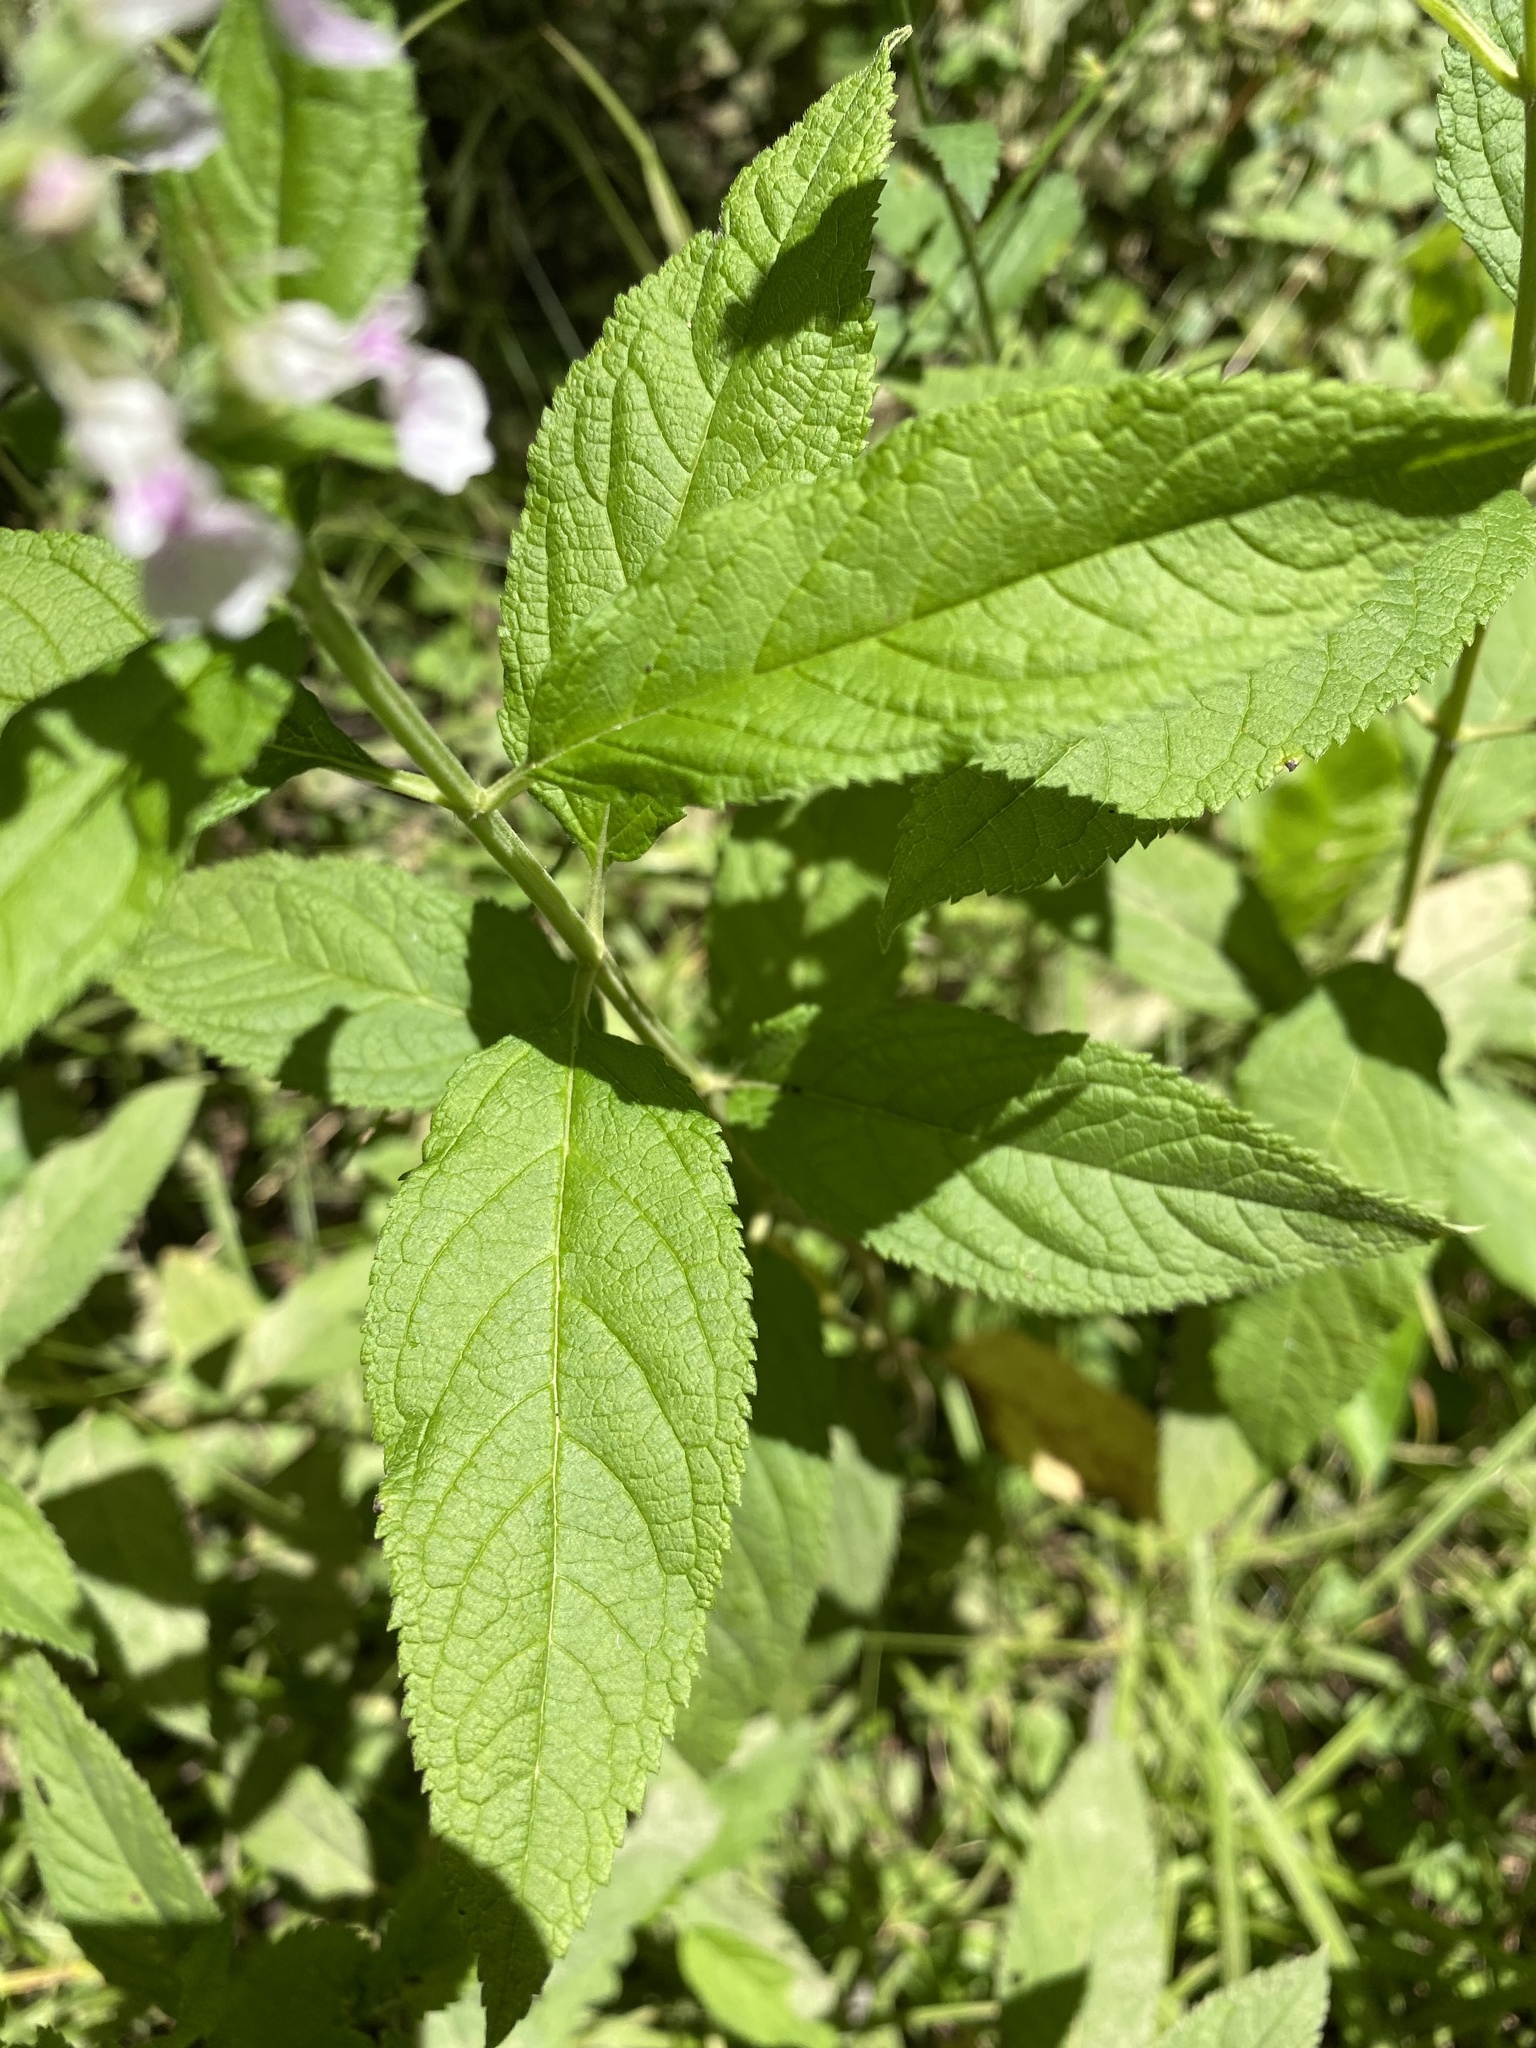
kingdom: Plantae
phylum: Tracheophyta
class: Magnoliopsida
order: Lamiales
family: Lamiaceae
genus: Teucrium
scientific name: Teucrium canadense
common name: American germander
